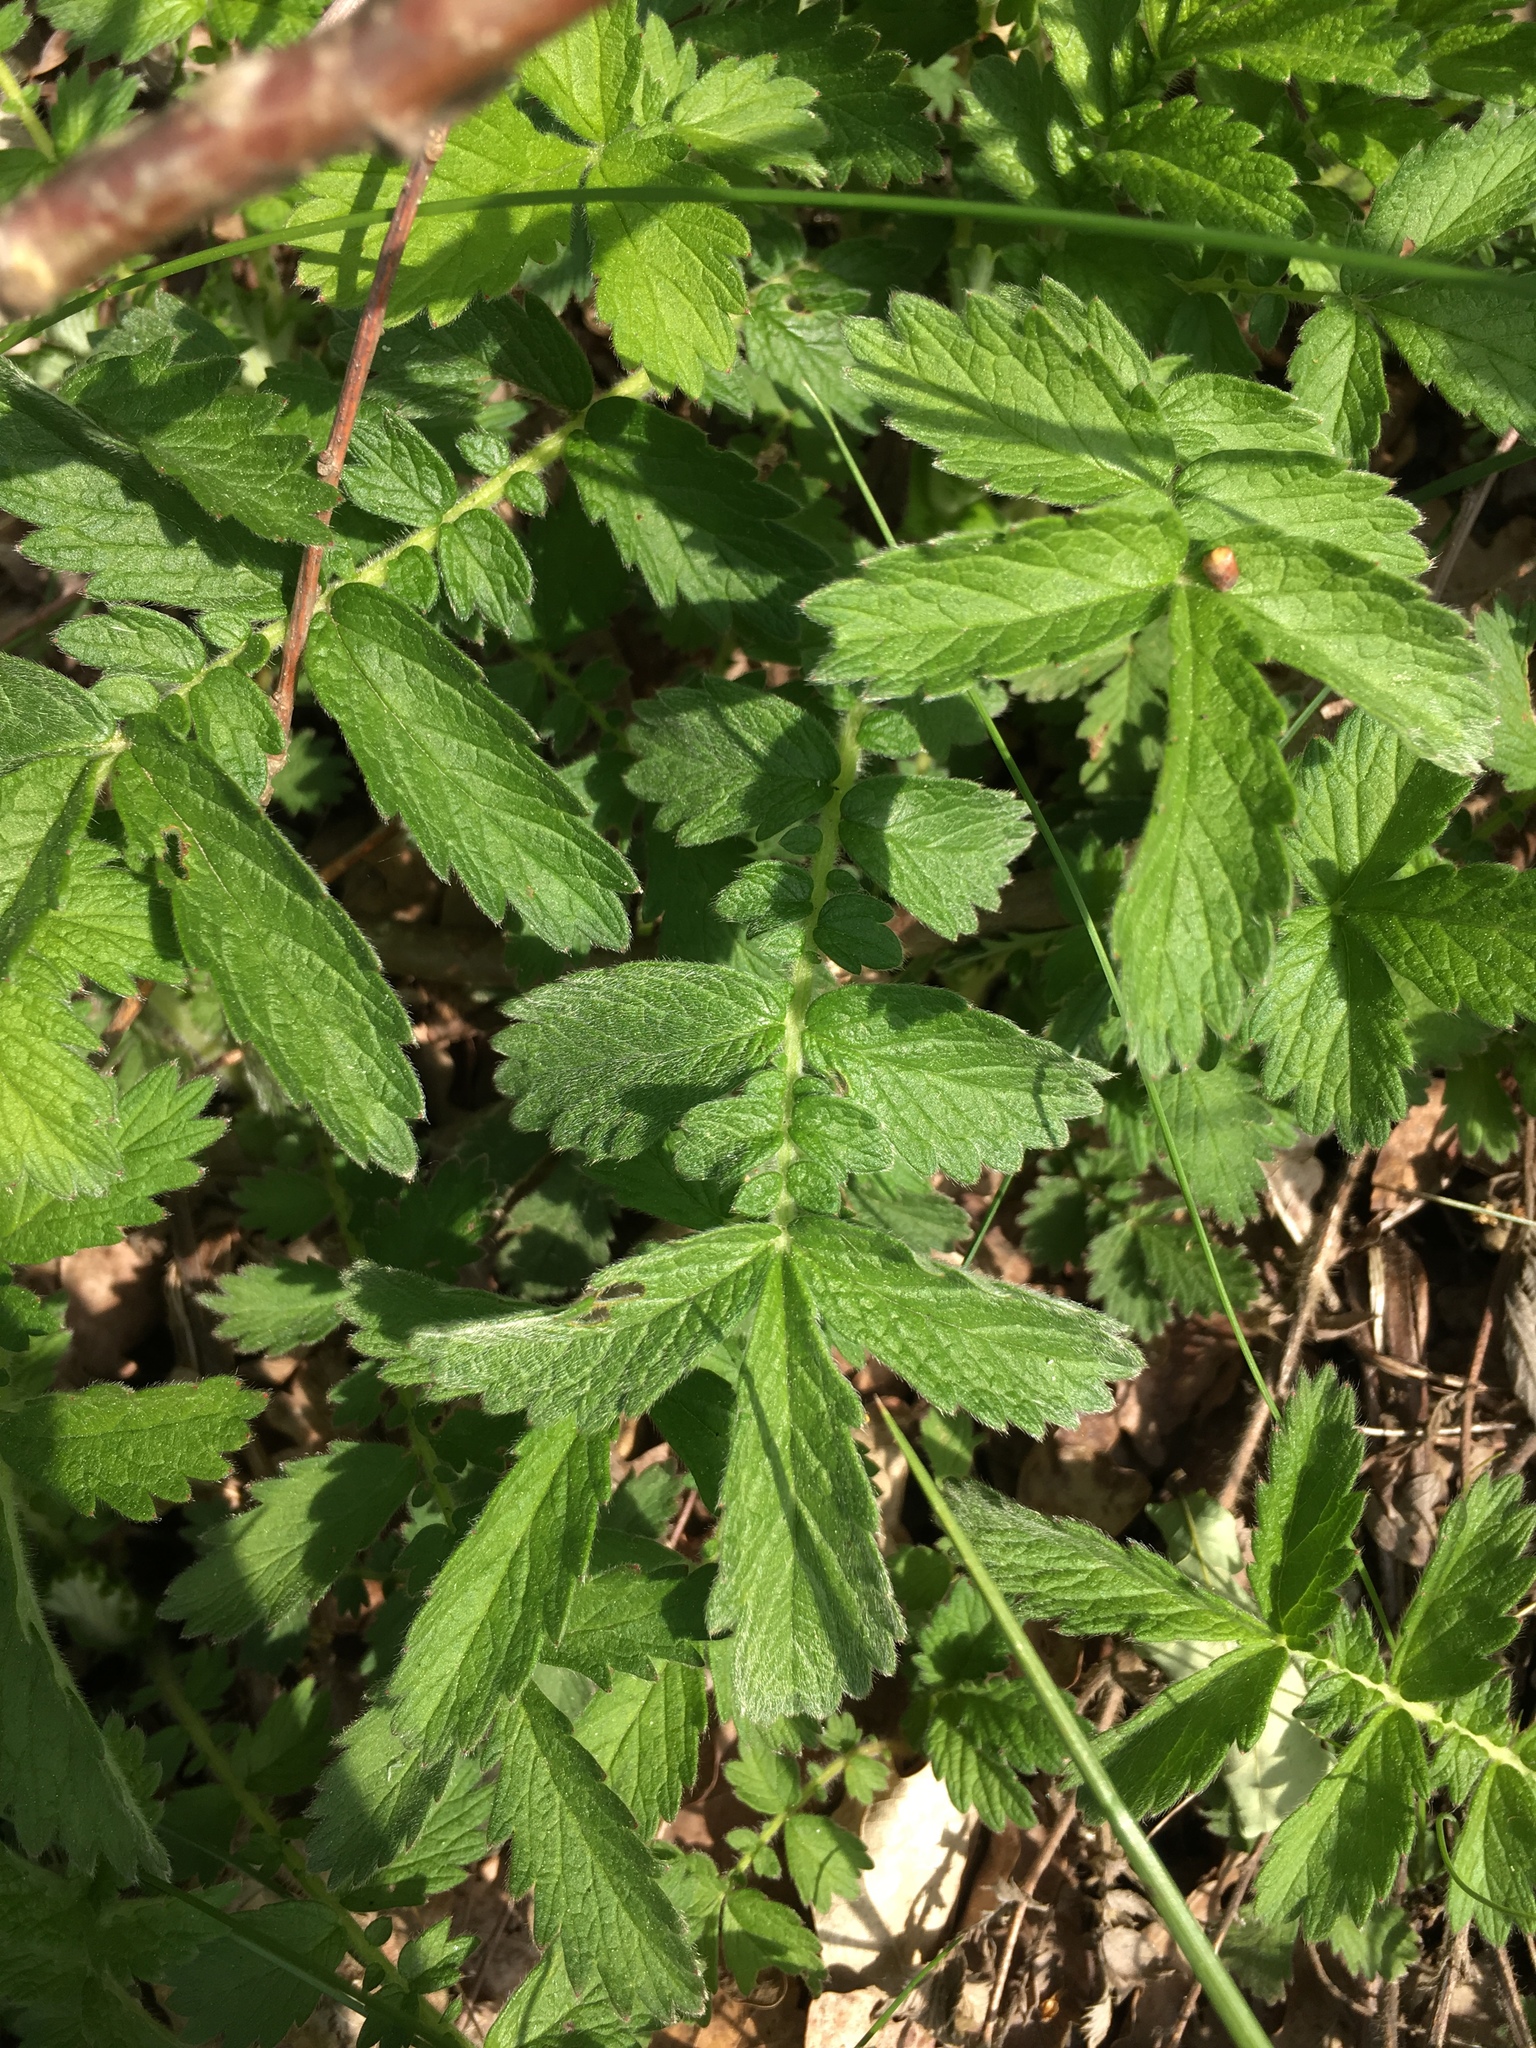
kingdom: Plantae
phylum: Tracheophyta
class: Magnoliopsida
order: Rosales
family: Rosaceae
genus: Agrimonia
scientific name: Agrimonia eupatoria
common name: Agrimony
